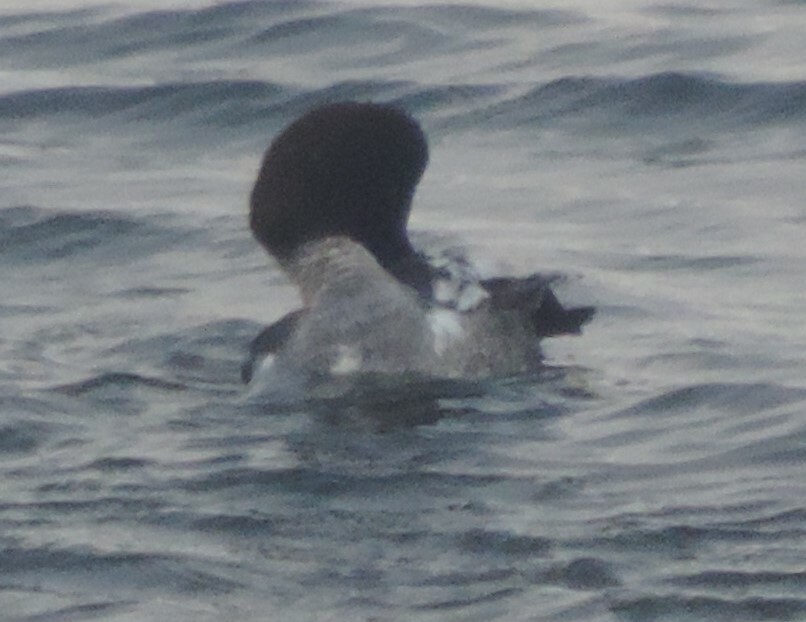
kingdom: Animalia
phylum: Chordata
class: Aves
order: Anseriformes
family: Anatidae
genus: Bucephala
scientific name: Bucephala clangula
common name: Common goldeneye
